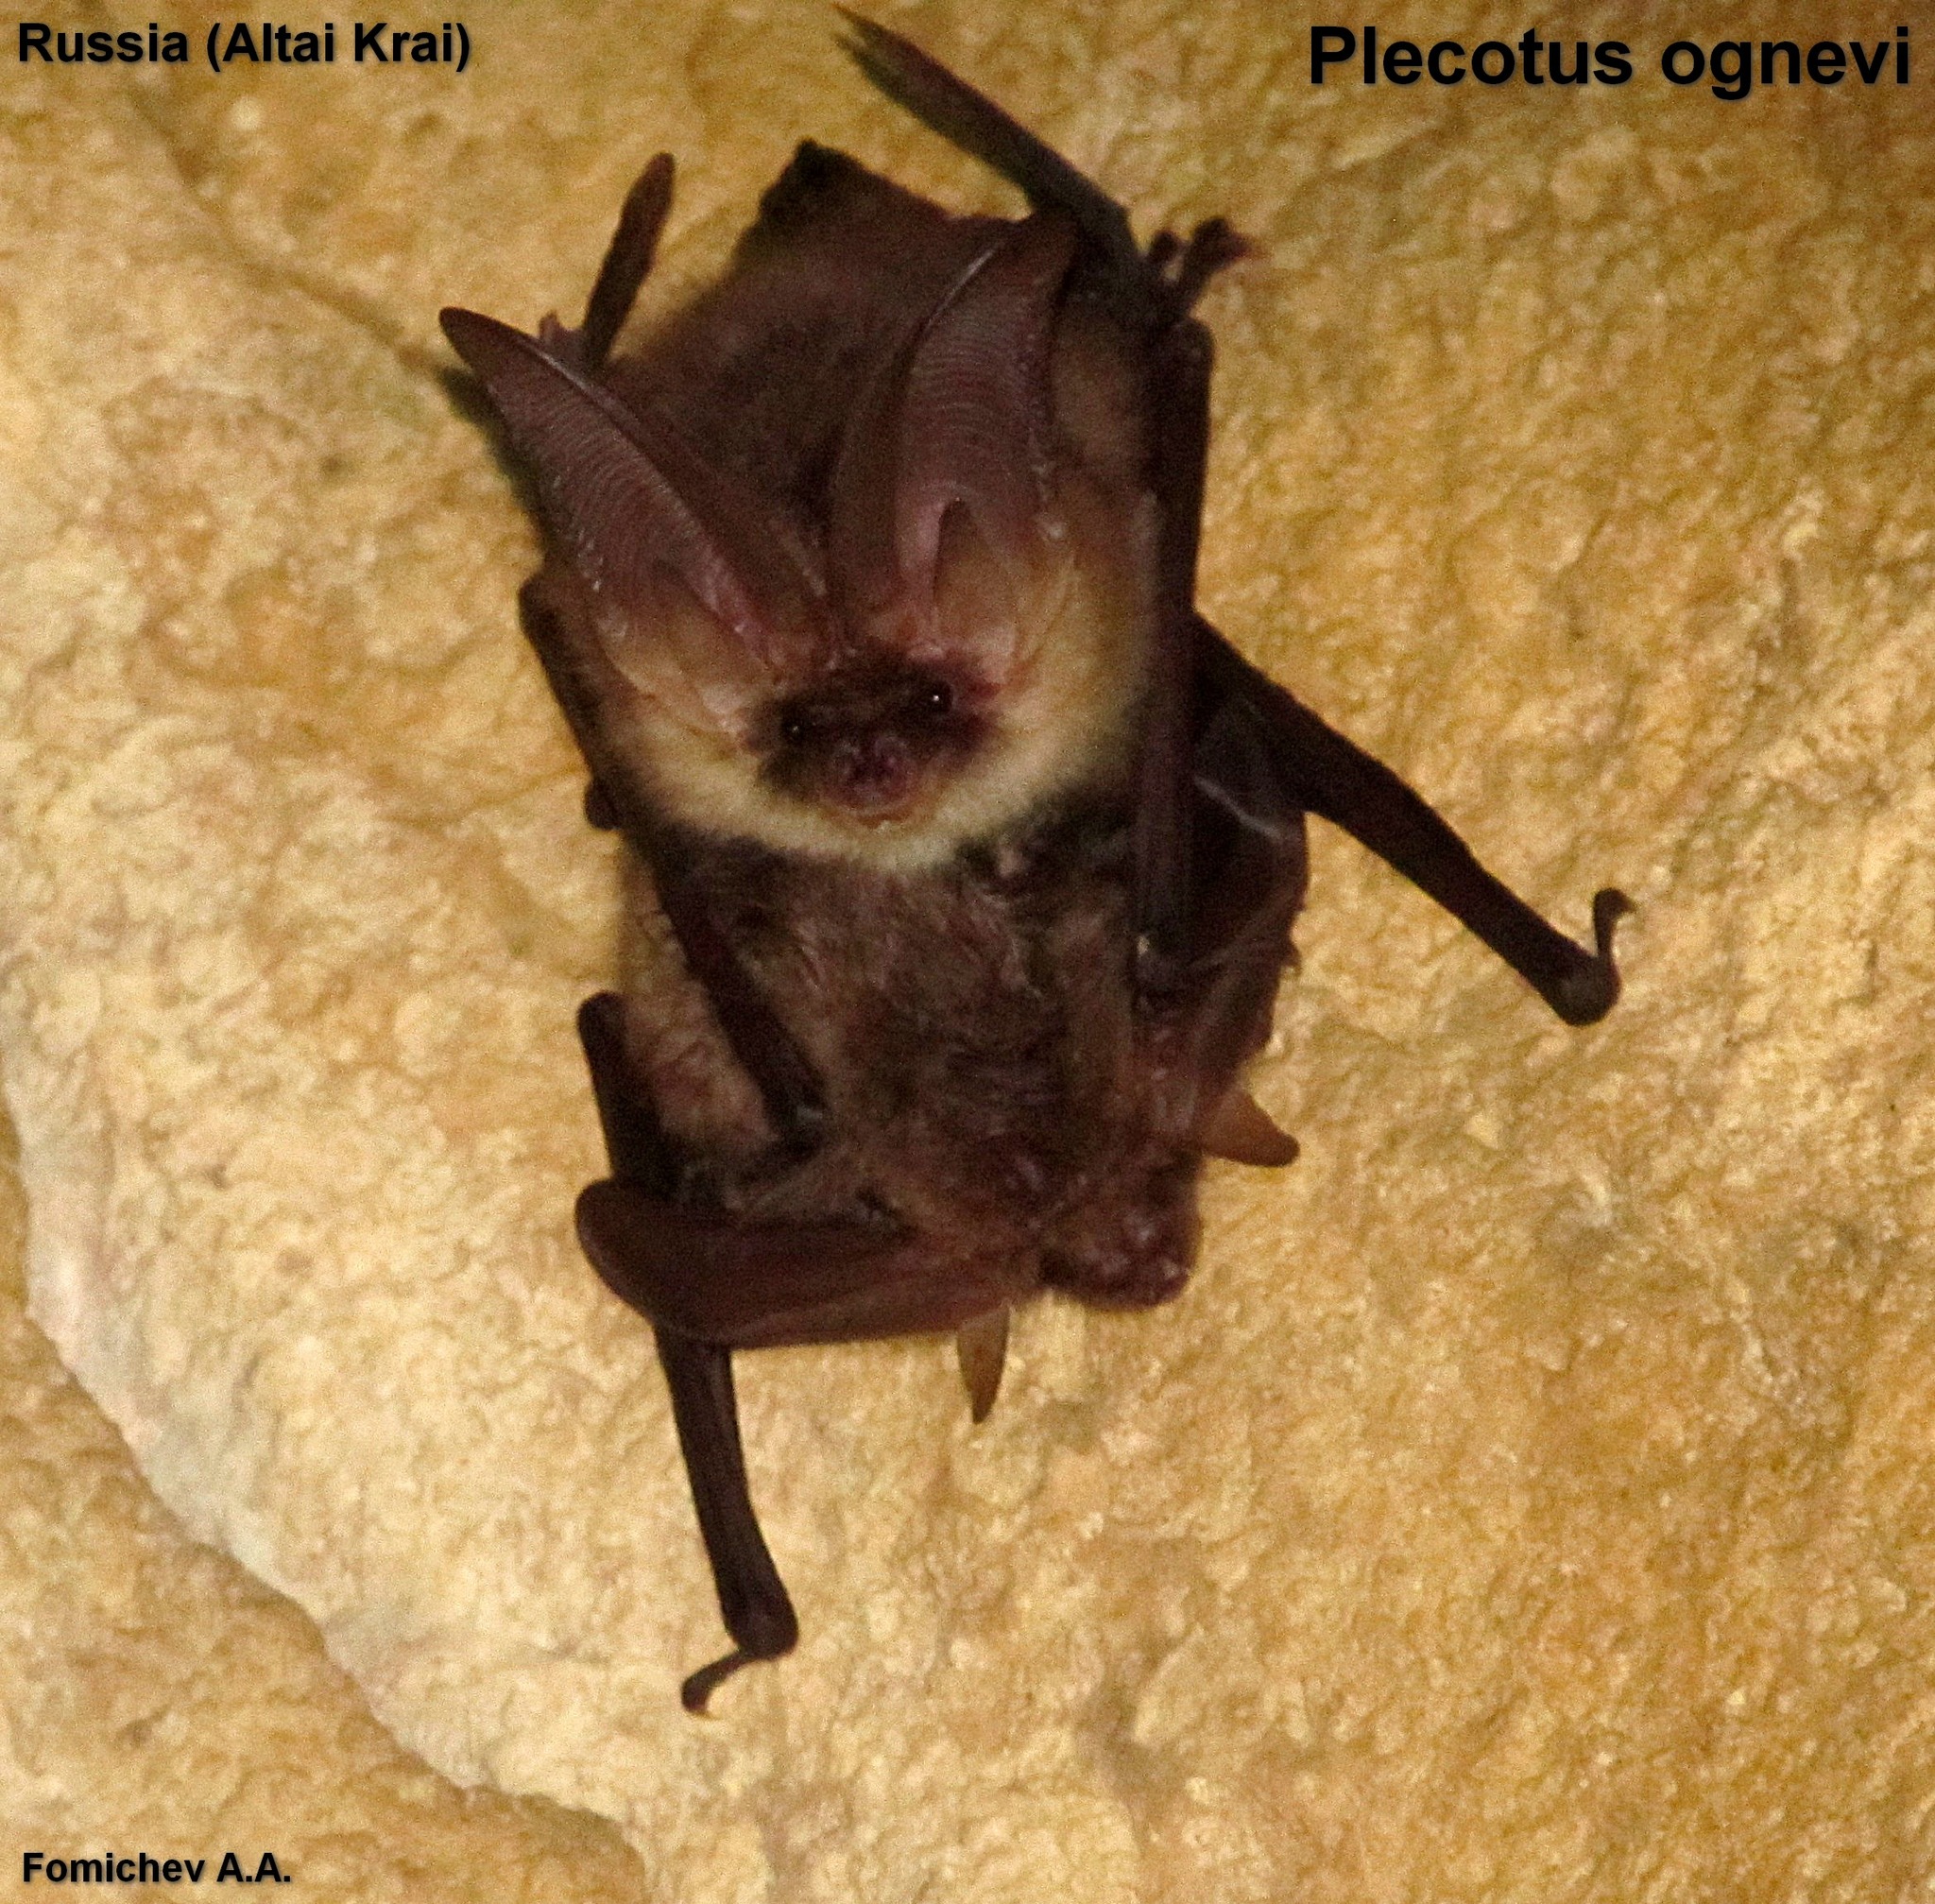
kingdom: Animalia
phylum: Chordata
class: Mammalia
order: Chiroptera
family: Vespertilionidae
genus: Plecotus
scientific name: Plecotus ognevi
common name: Ognev’s long-eared bat
